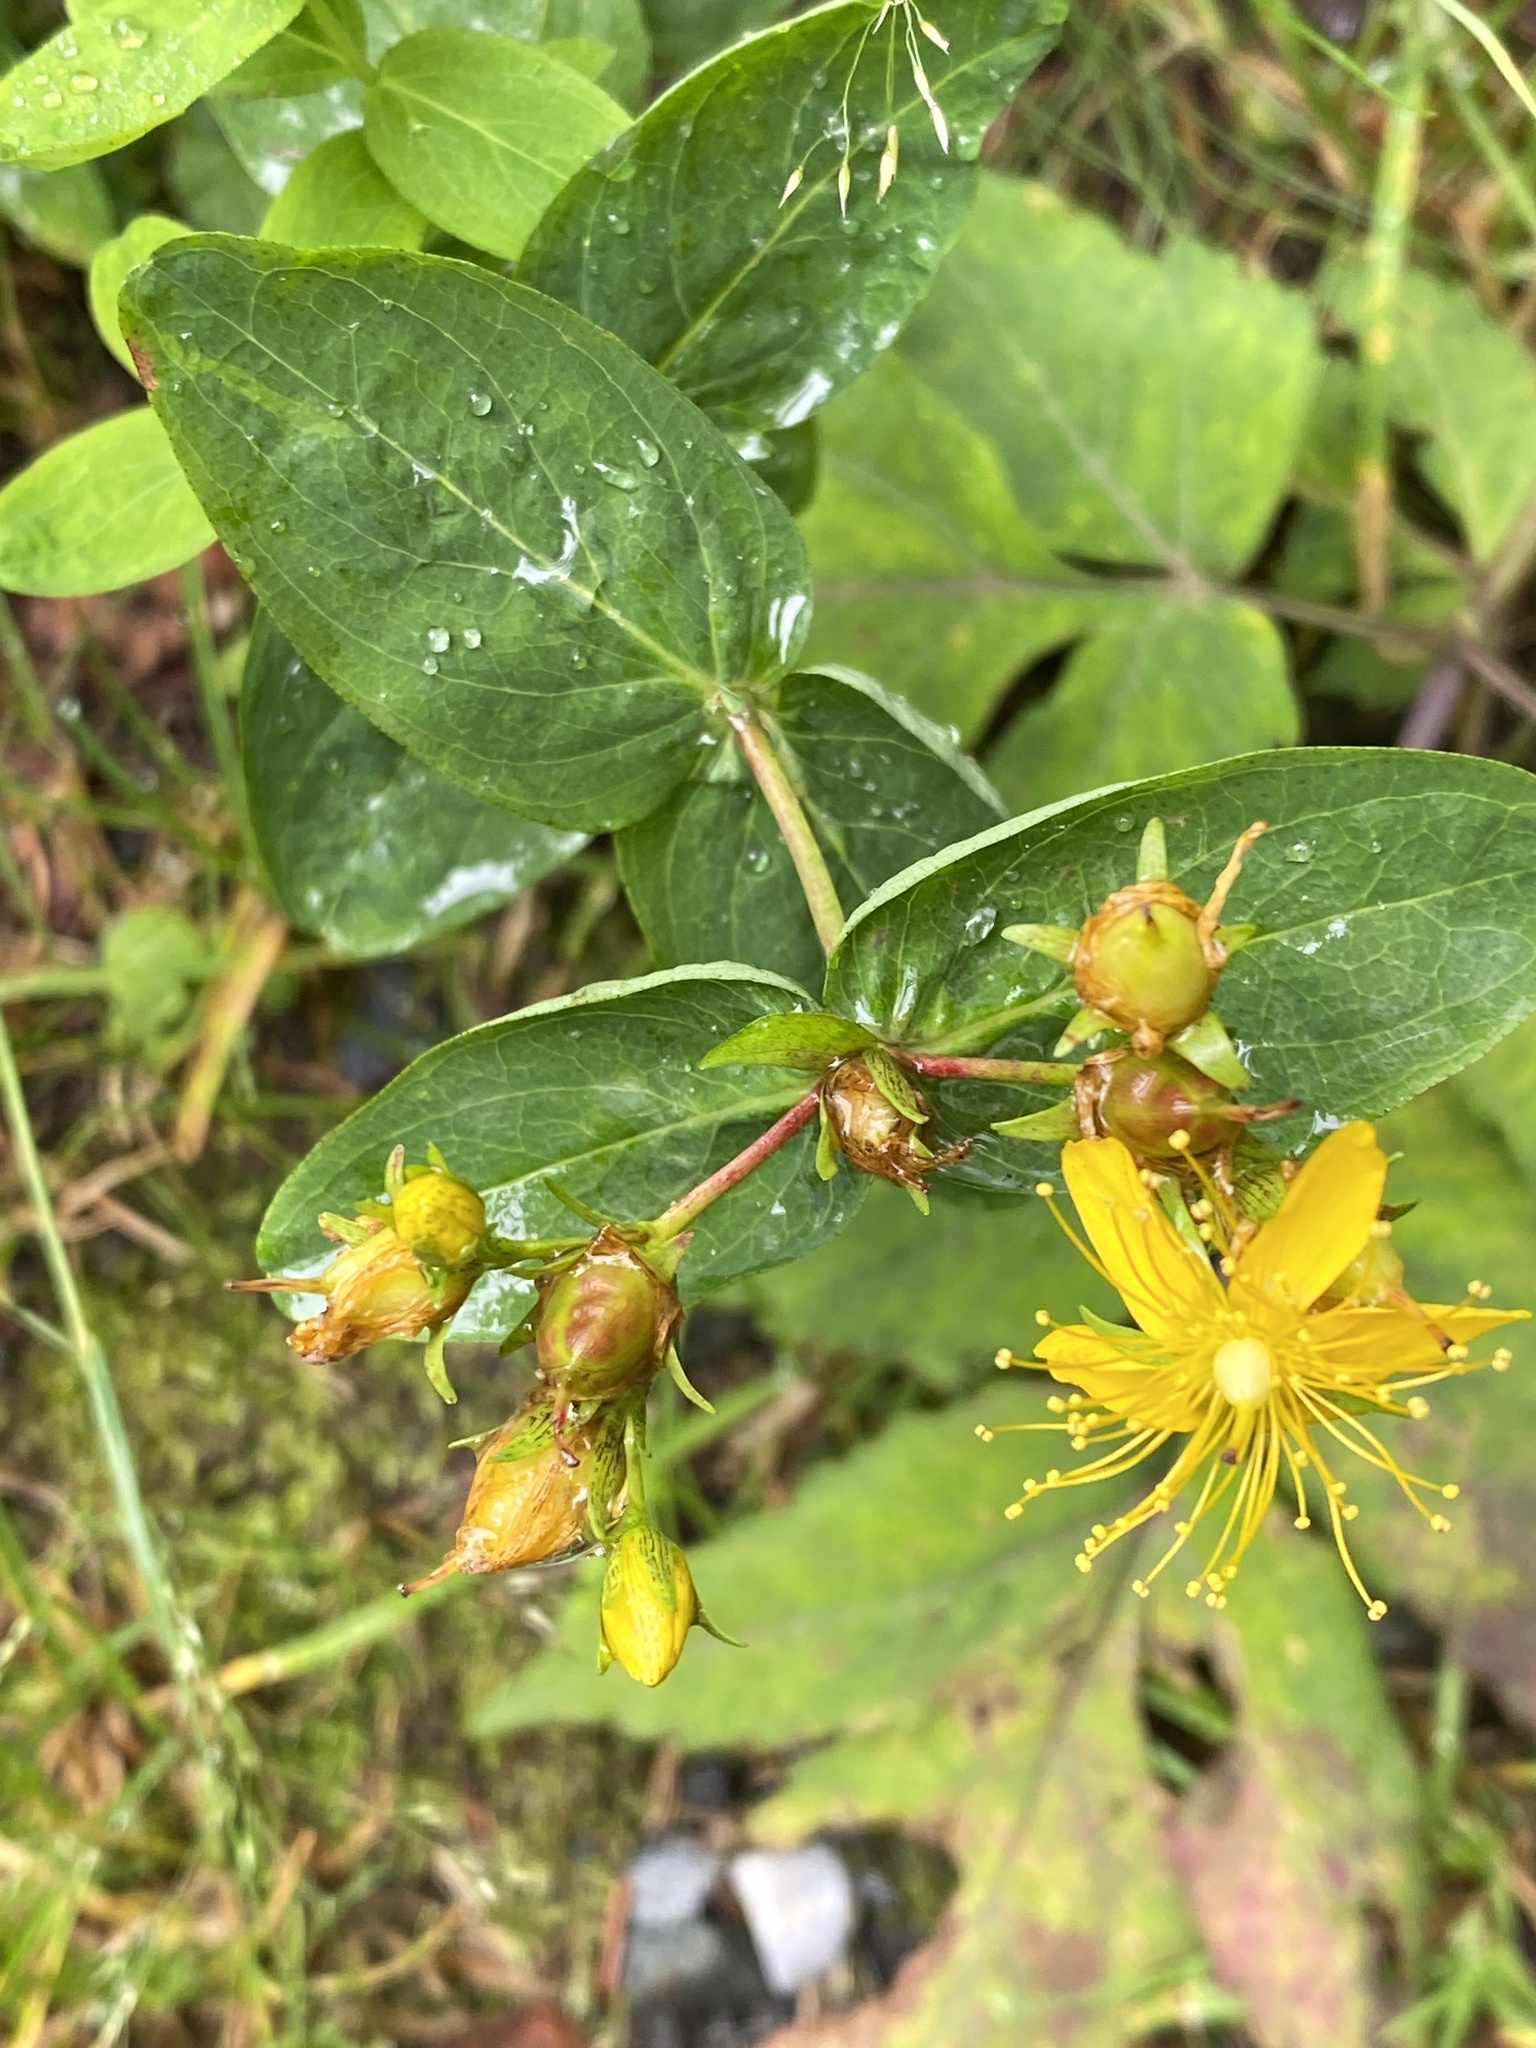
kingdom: Plantae
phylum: Tracheophyta
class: Magnoliopsida
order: Malpighiales
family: Hypericaceae
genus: Hypericum
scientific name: Hypericum graveolens
